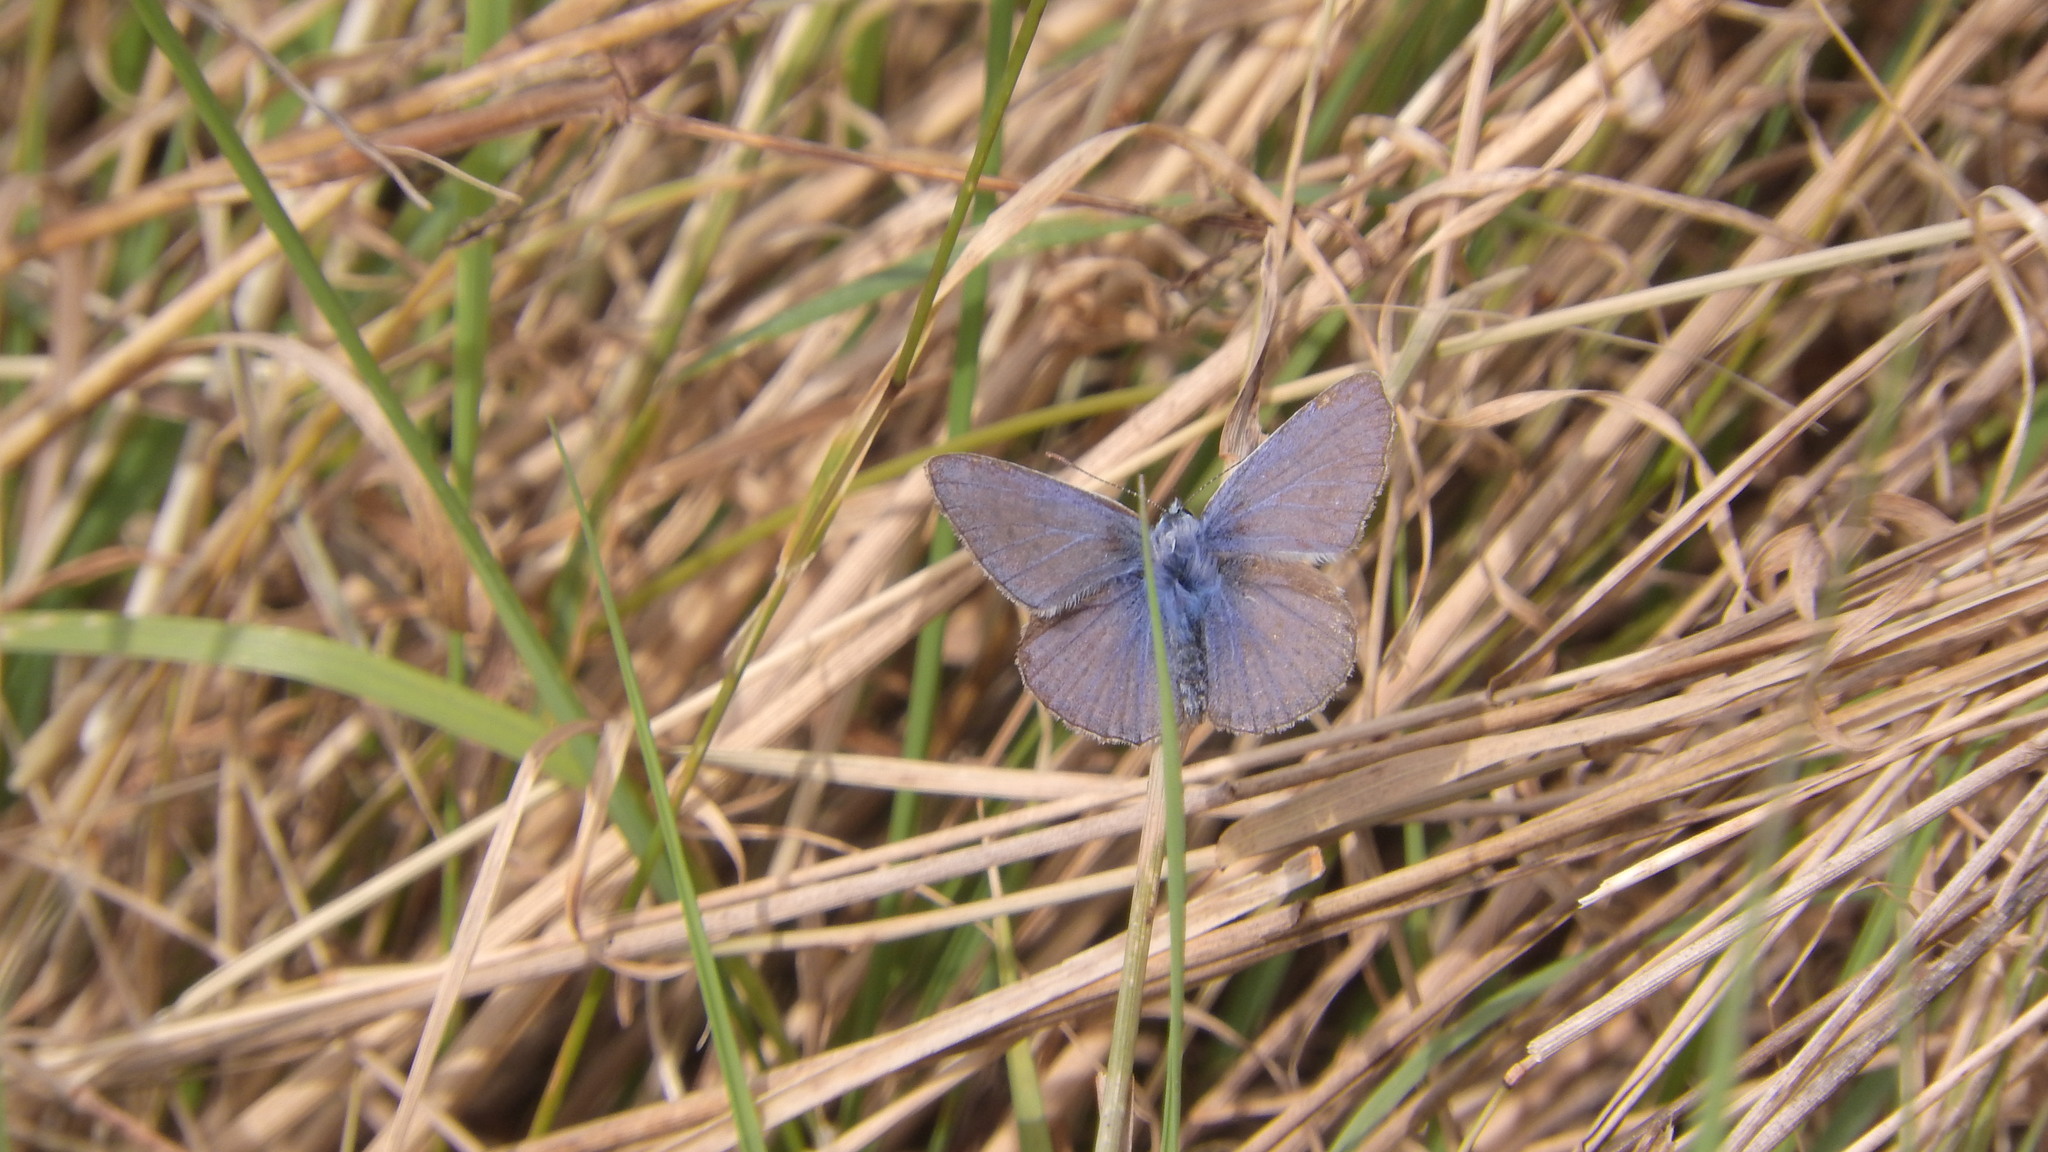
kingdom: Animalia
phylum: Arthropoda
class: Insecta
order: Lepidoptera
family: Lycaenidae
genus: Polyommatus
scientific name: Polyommatus icarus
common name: Common blue
